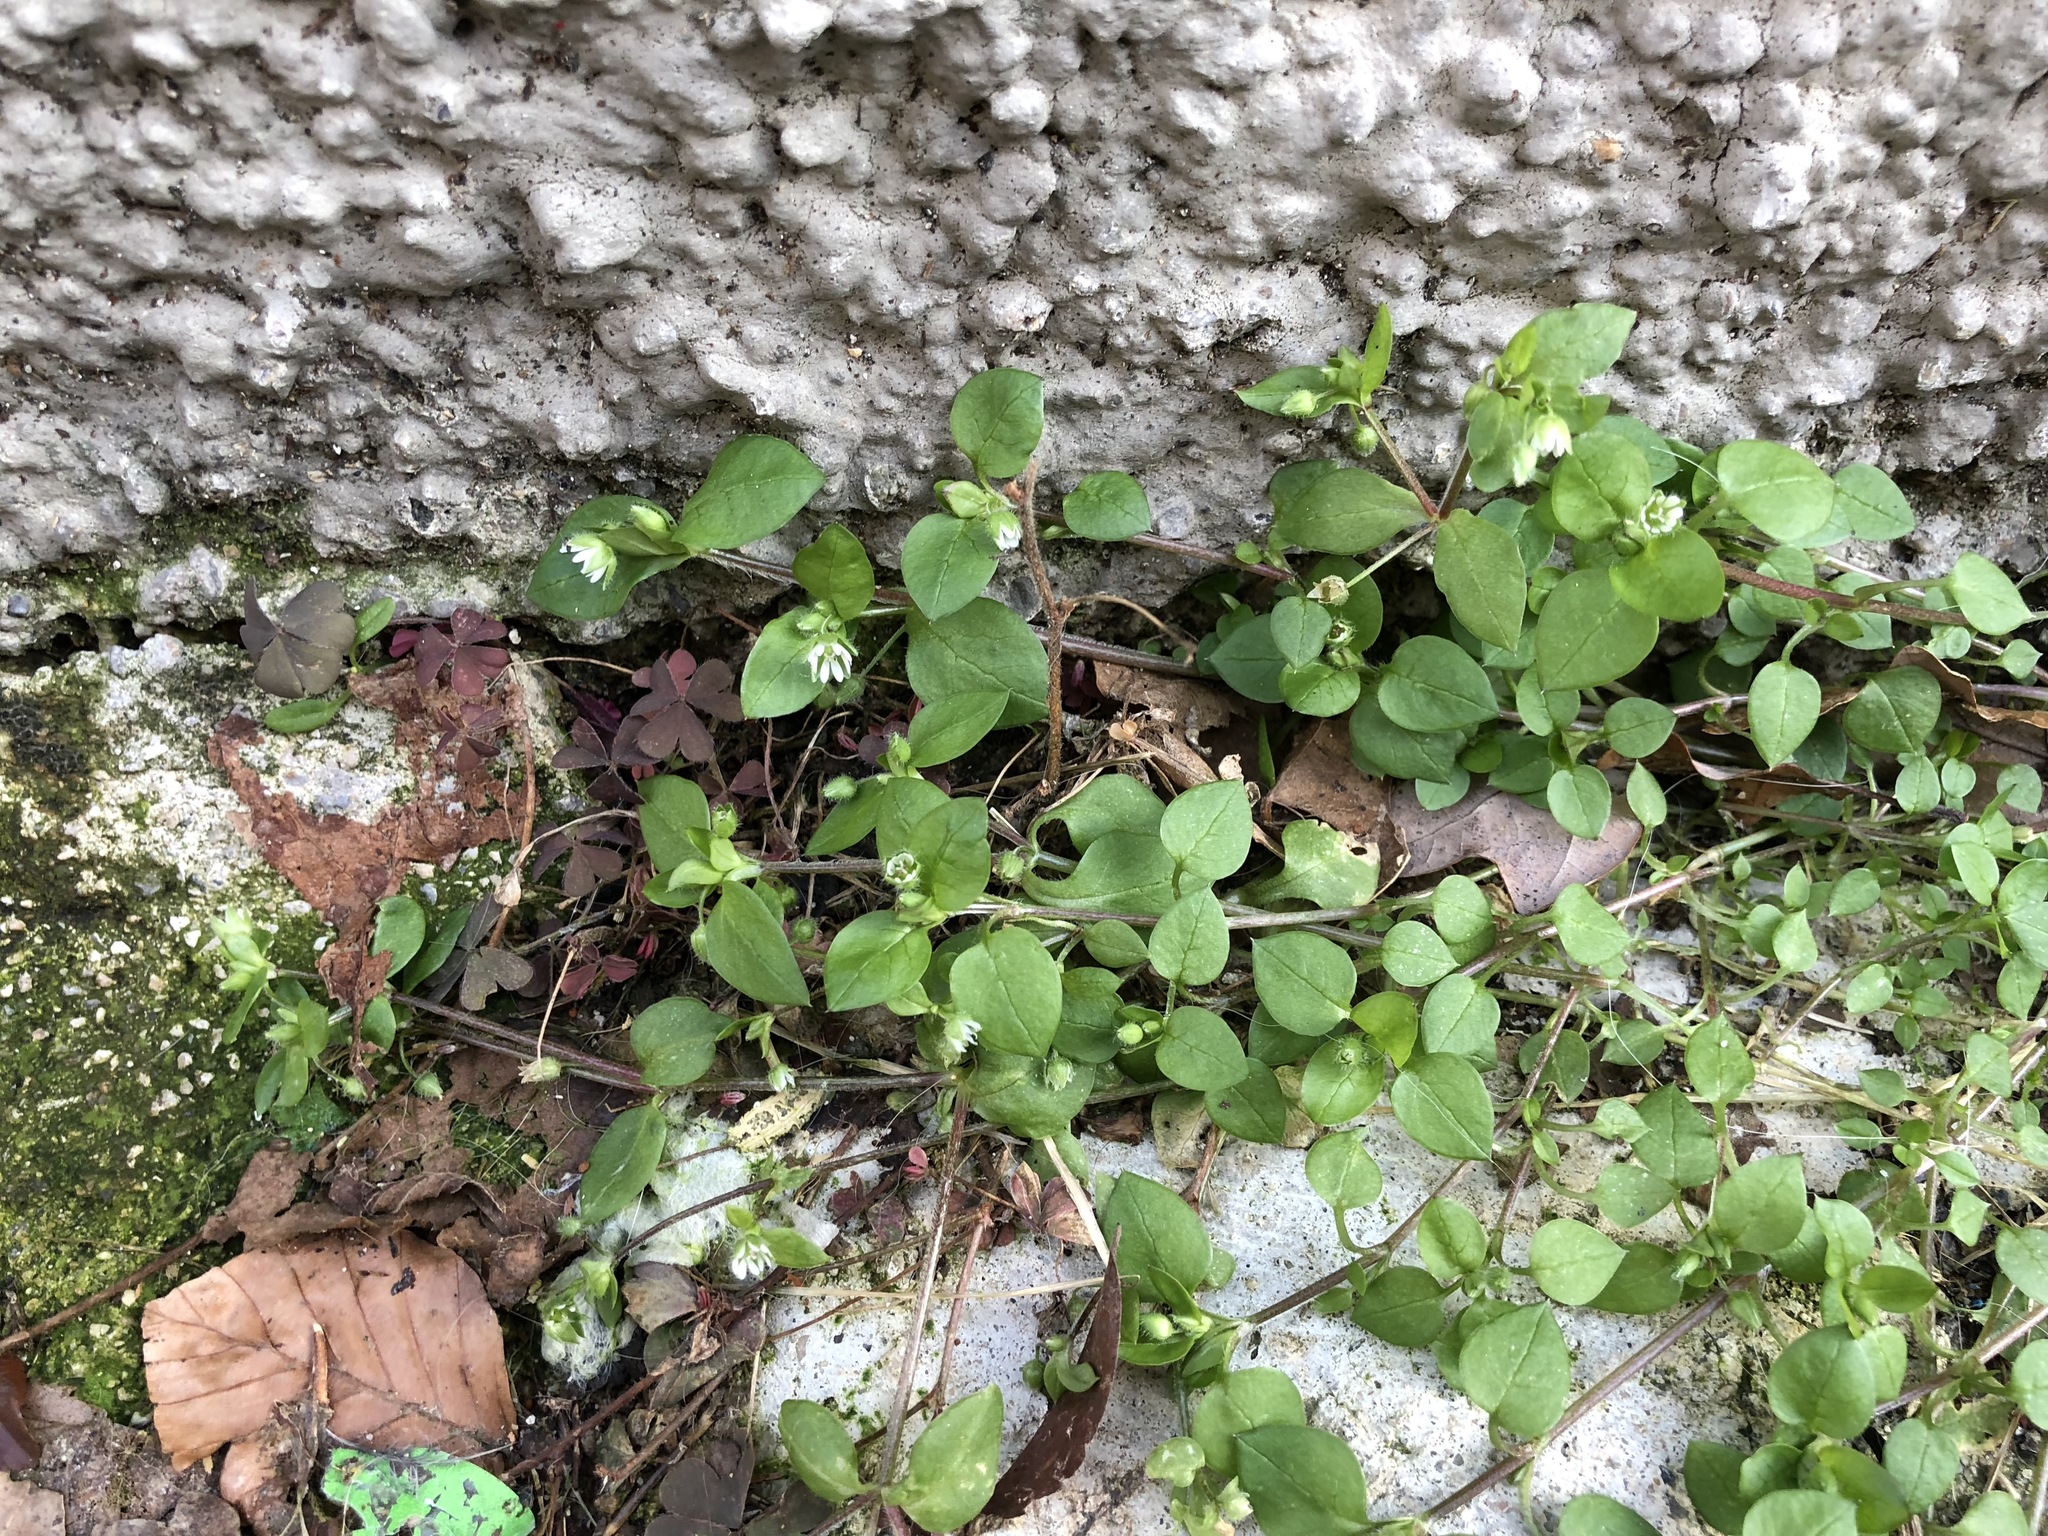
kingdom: Plantae
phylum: Tracheophyta
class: Magnoliopsida
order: Caryophyllales
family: Caryophyllaceae
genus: Stellaria
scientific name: Stellaria media
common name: Common chickweed
